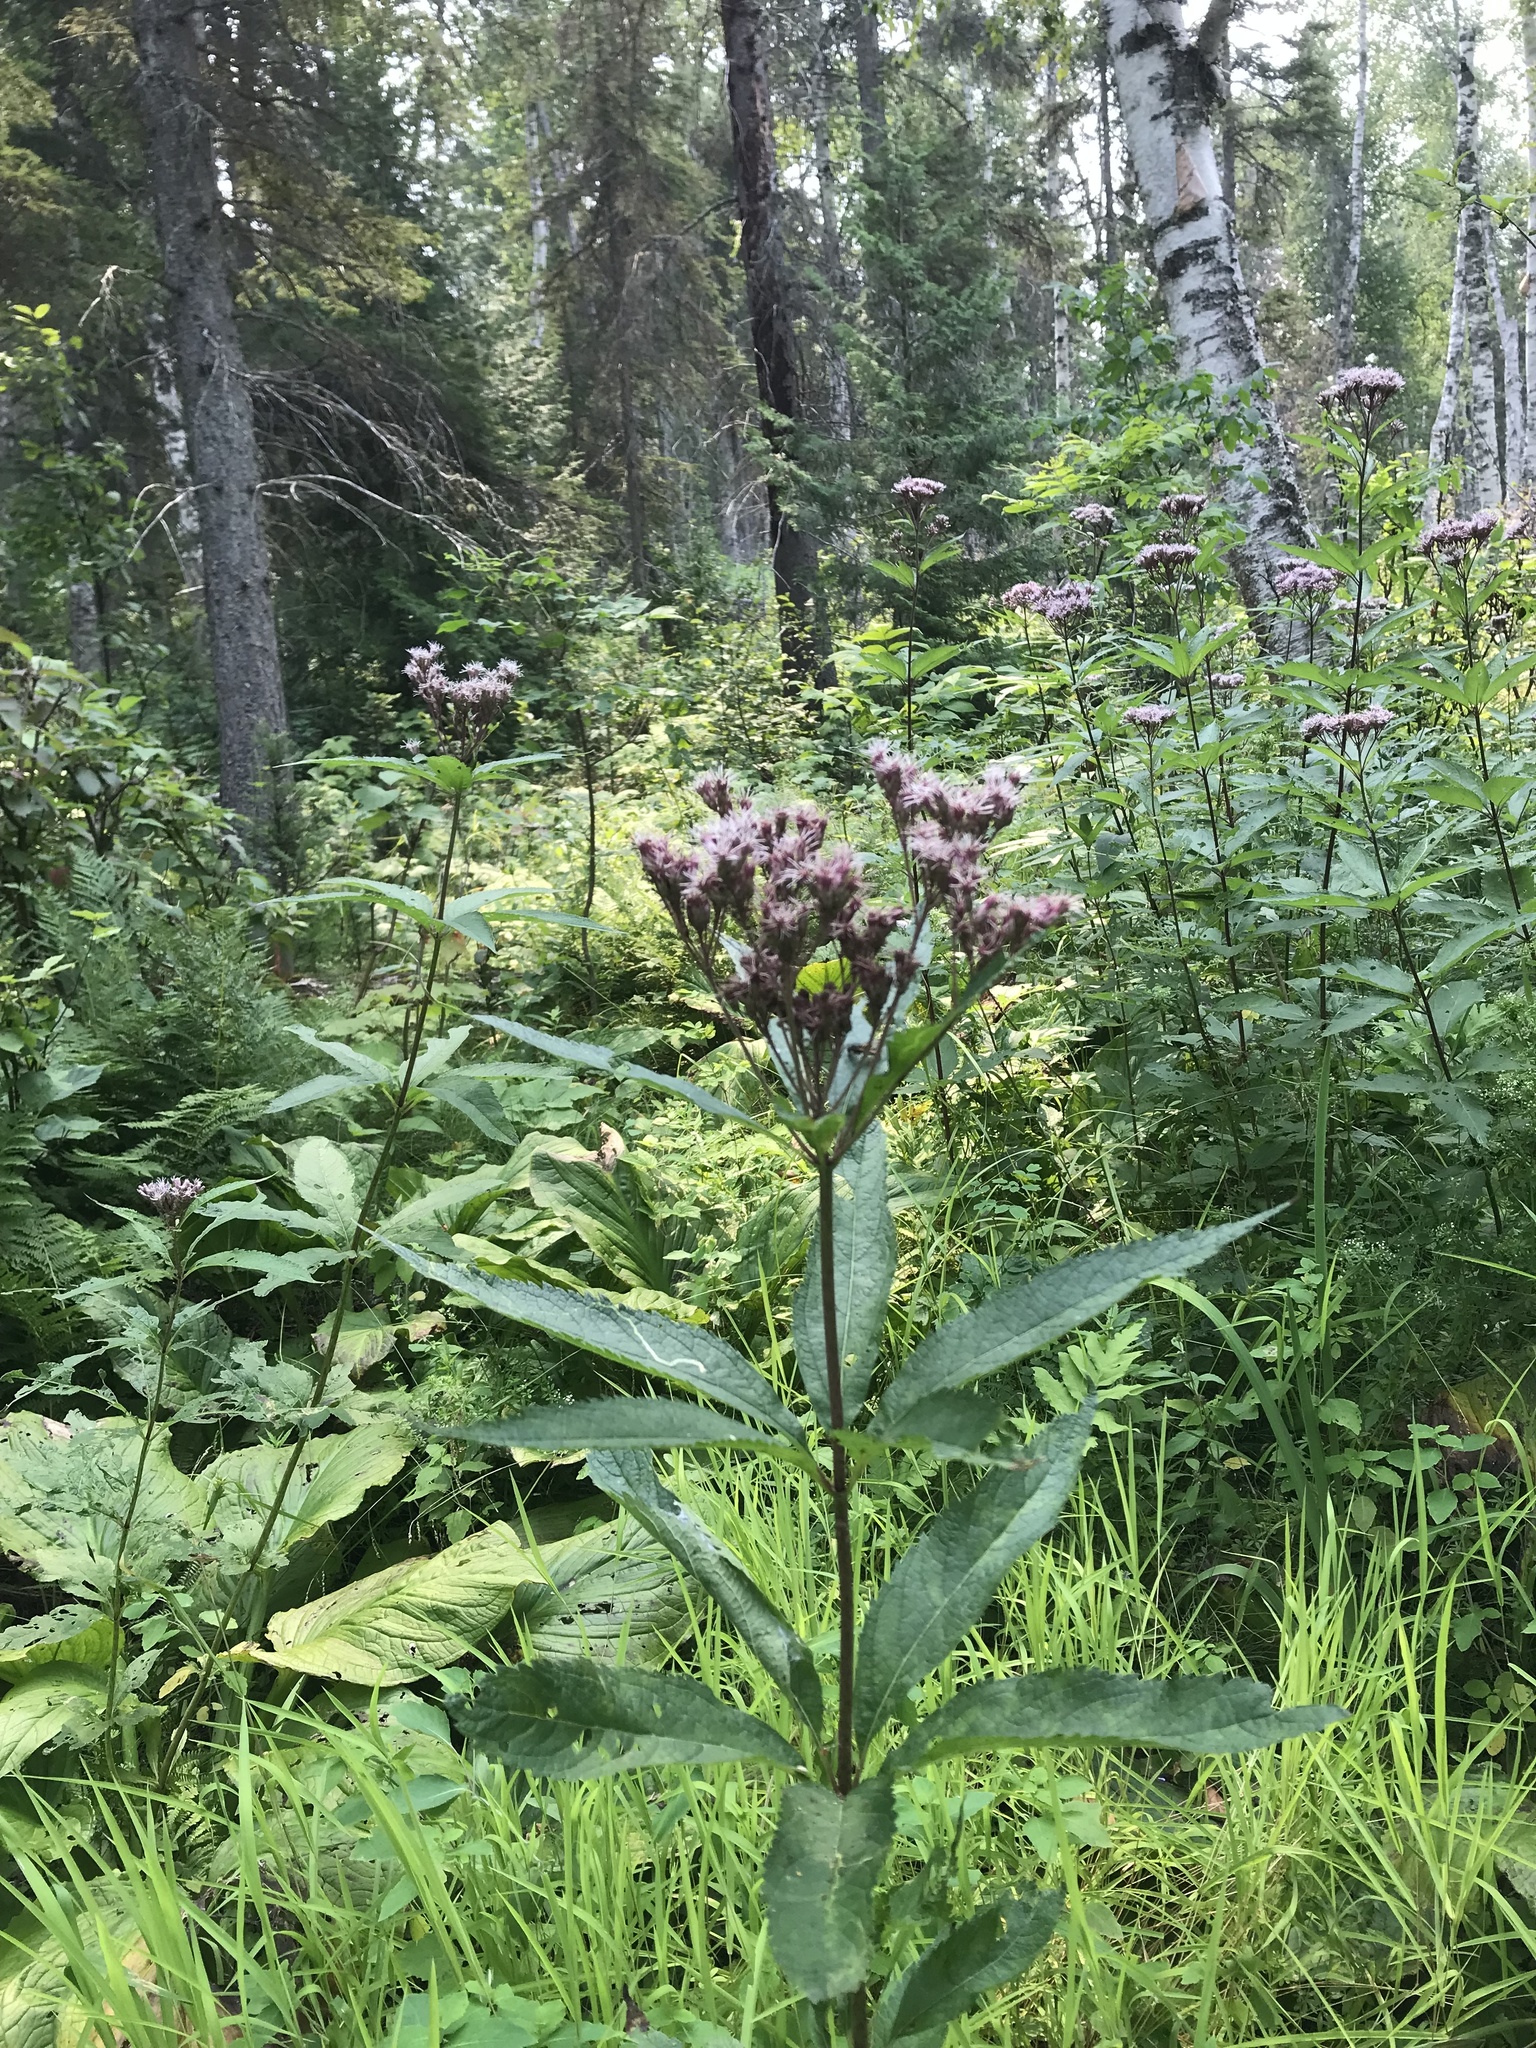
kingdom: Plantae
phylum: Tracheophyta
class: Magnoliopsida
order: Asterales
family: Asteraceae
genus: Eutrochium
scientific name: Eutrochium maculatum
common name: Spotted joe pye weed
